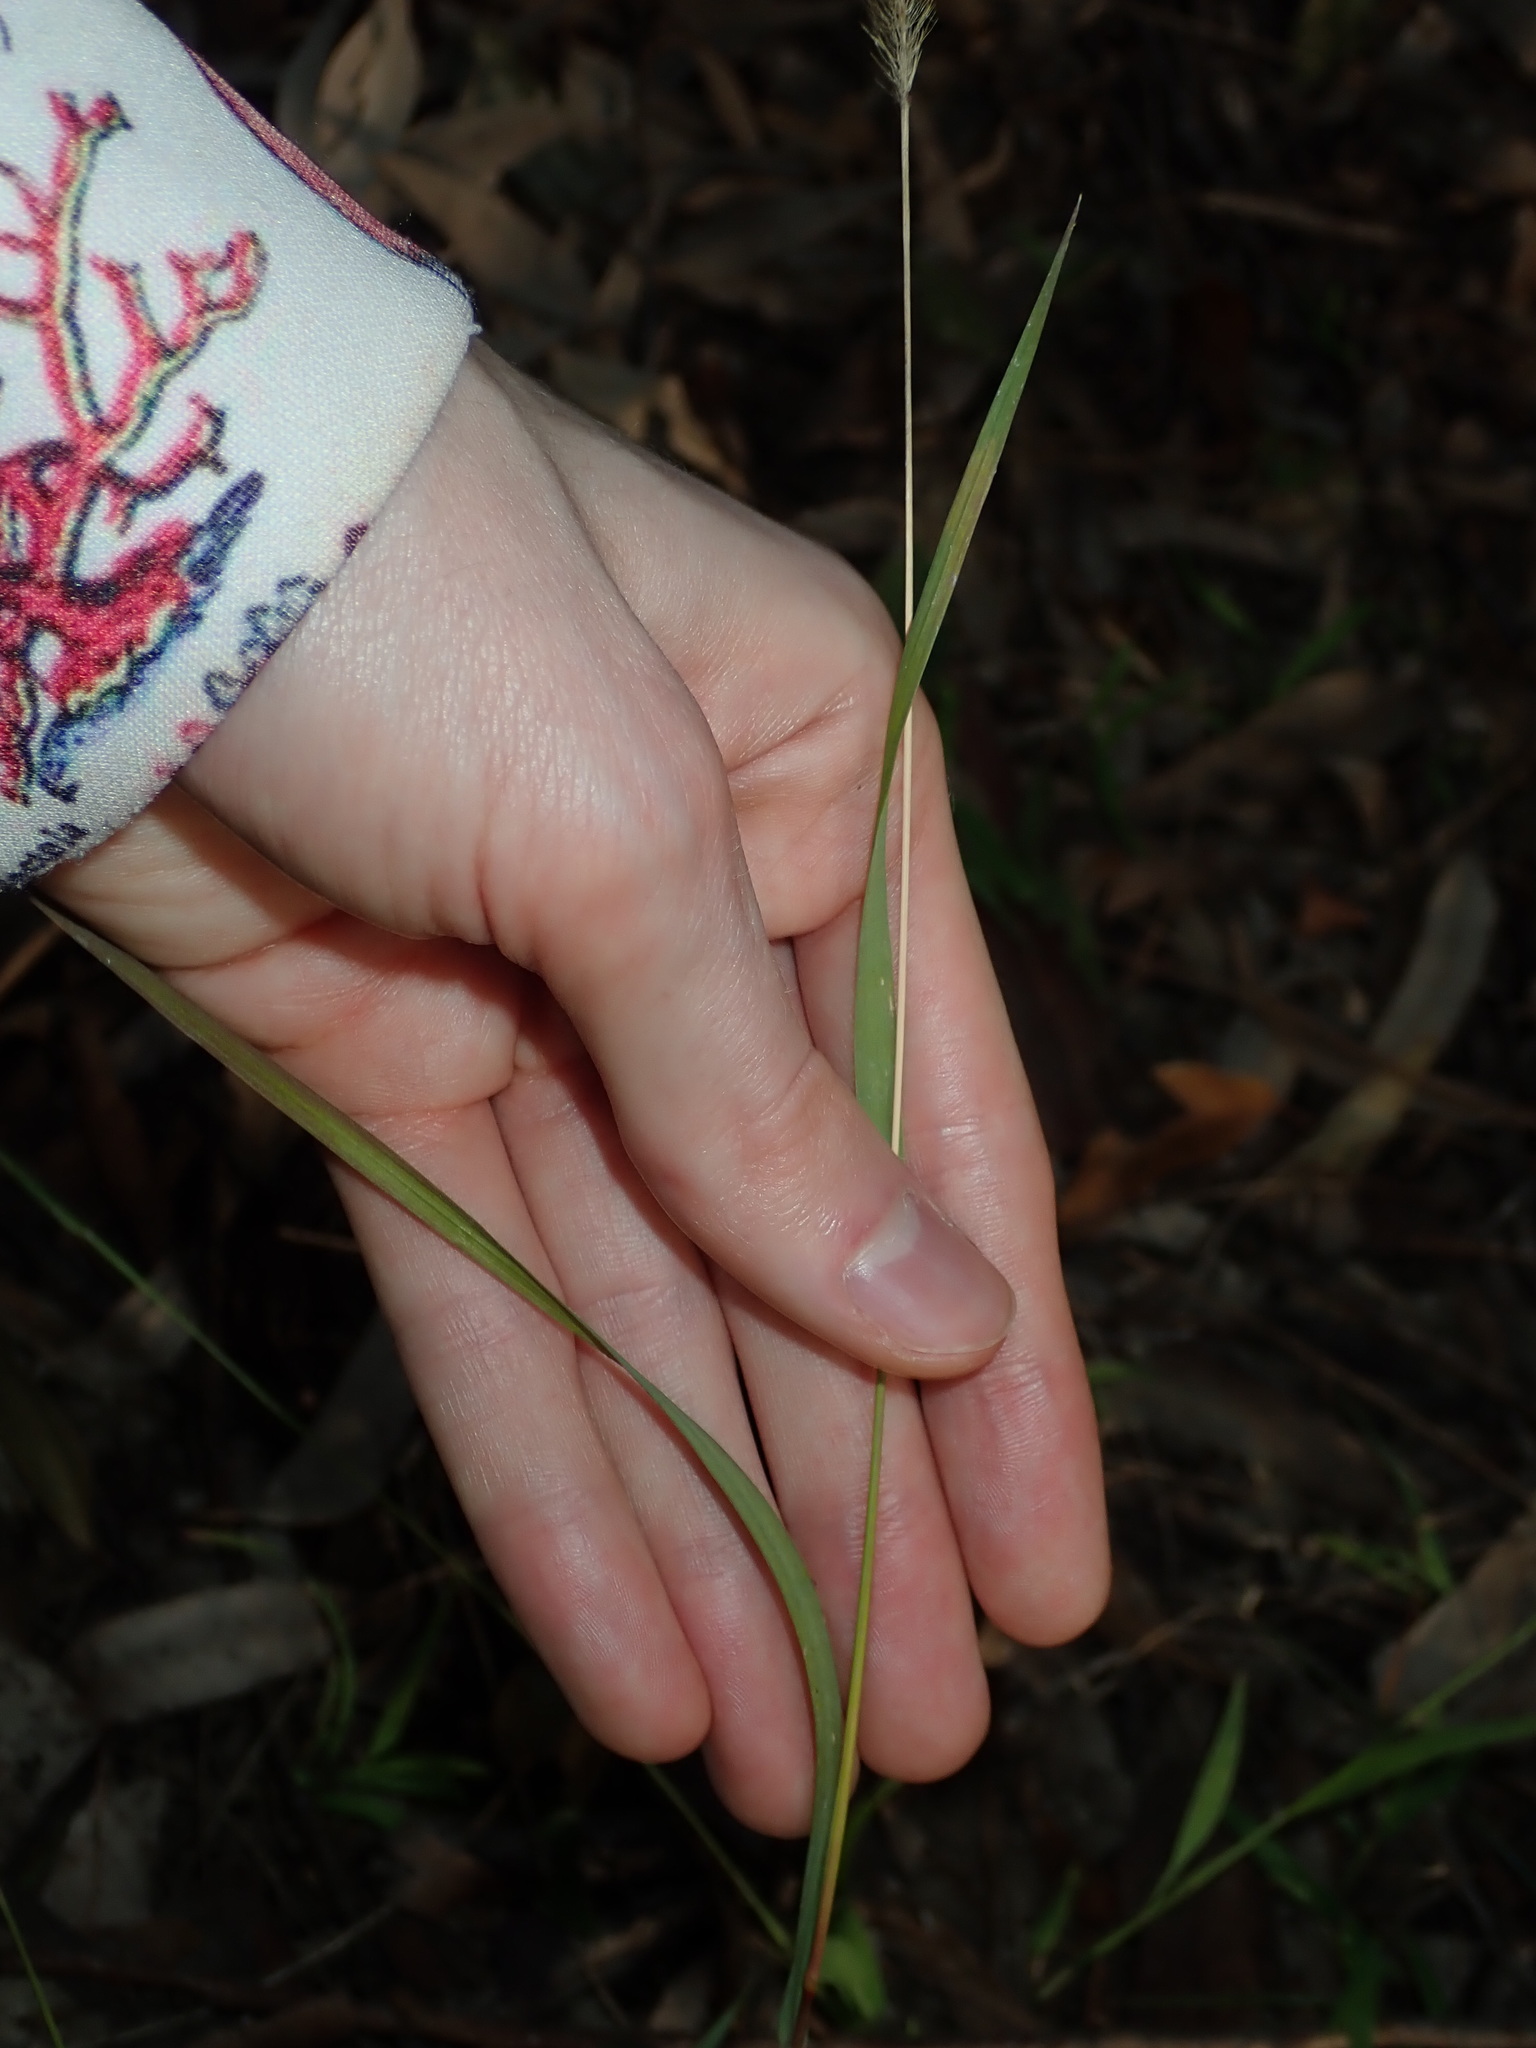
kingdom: Plantae
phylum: Tracheophyta
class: Liliopsida
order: Poales
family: Poaceae
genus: Setaria
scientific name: Setaria parviflora
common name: Knotroot bristle-grass
